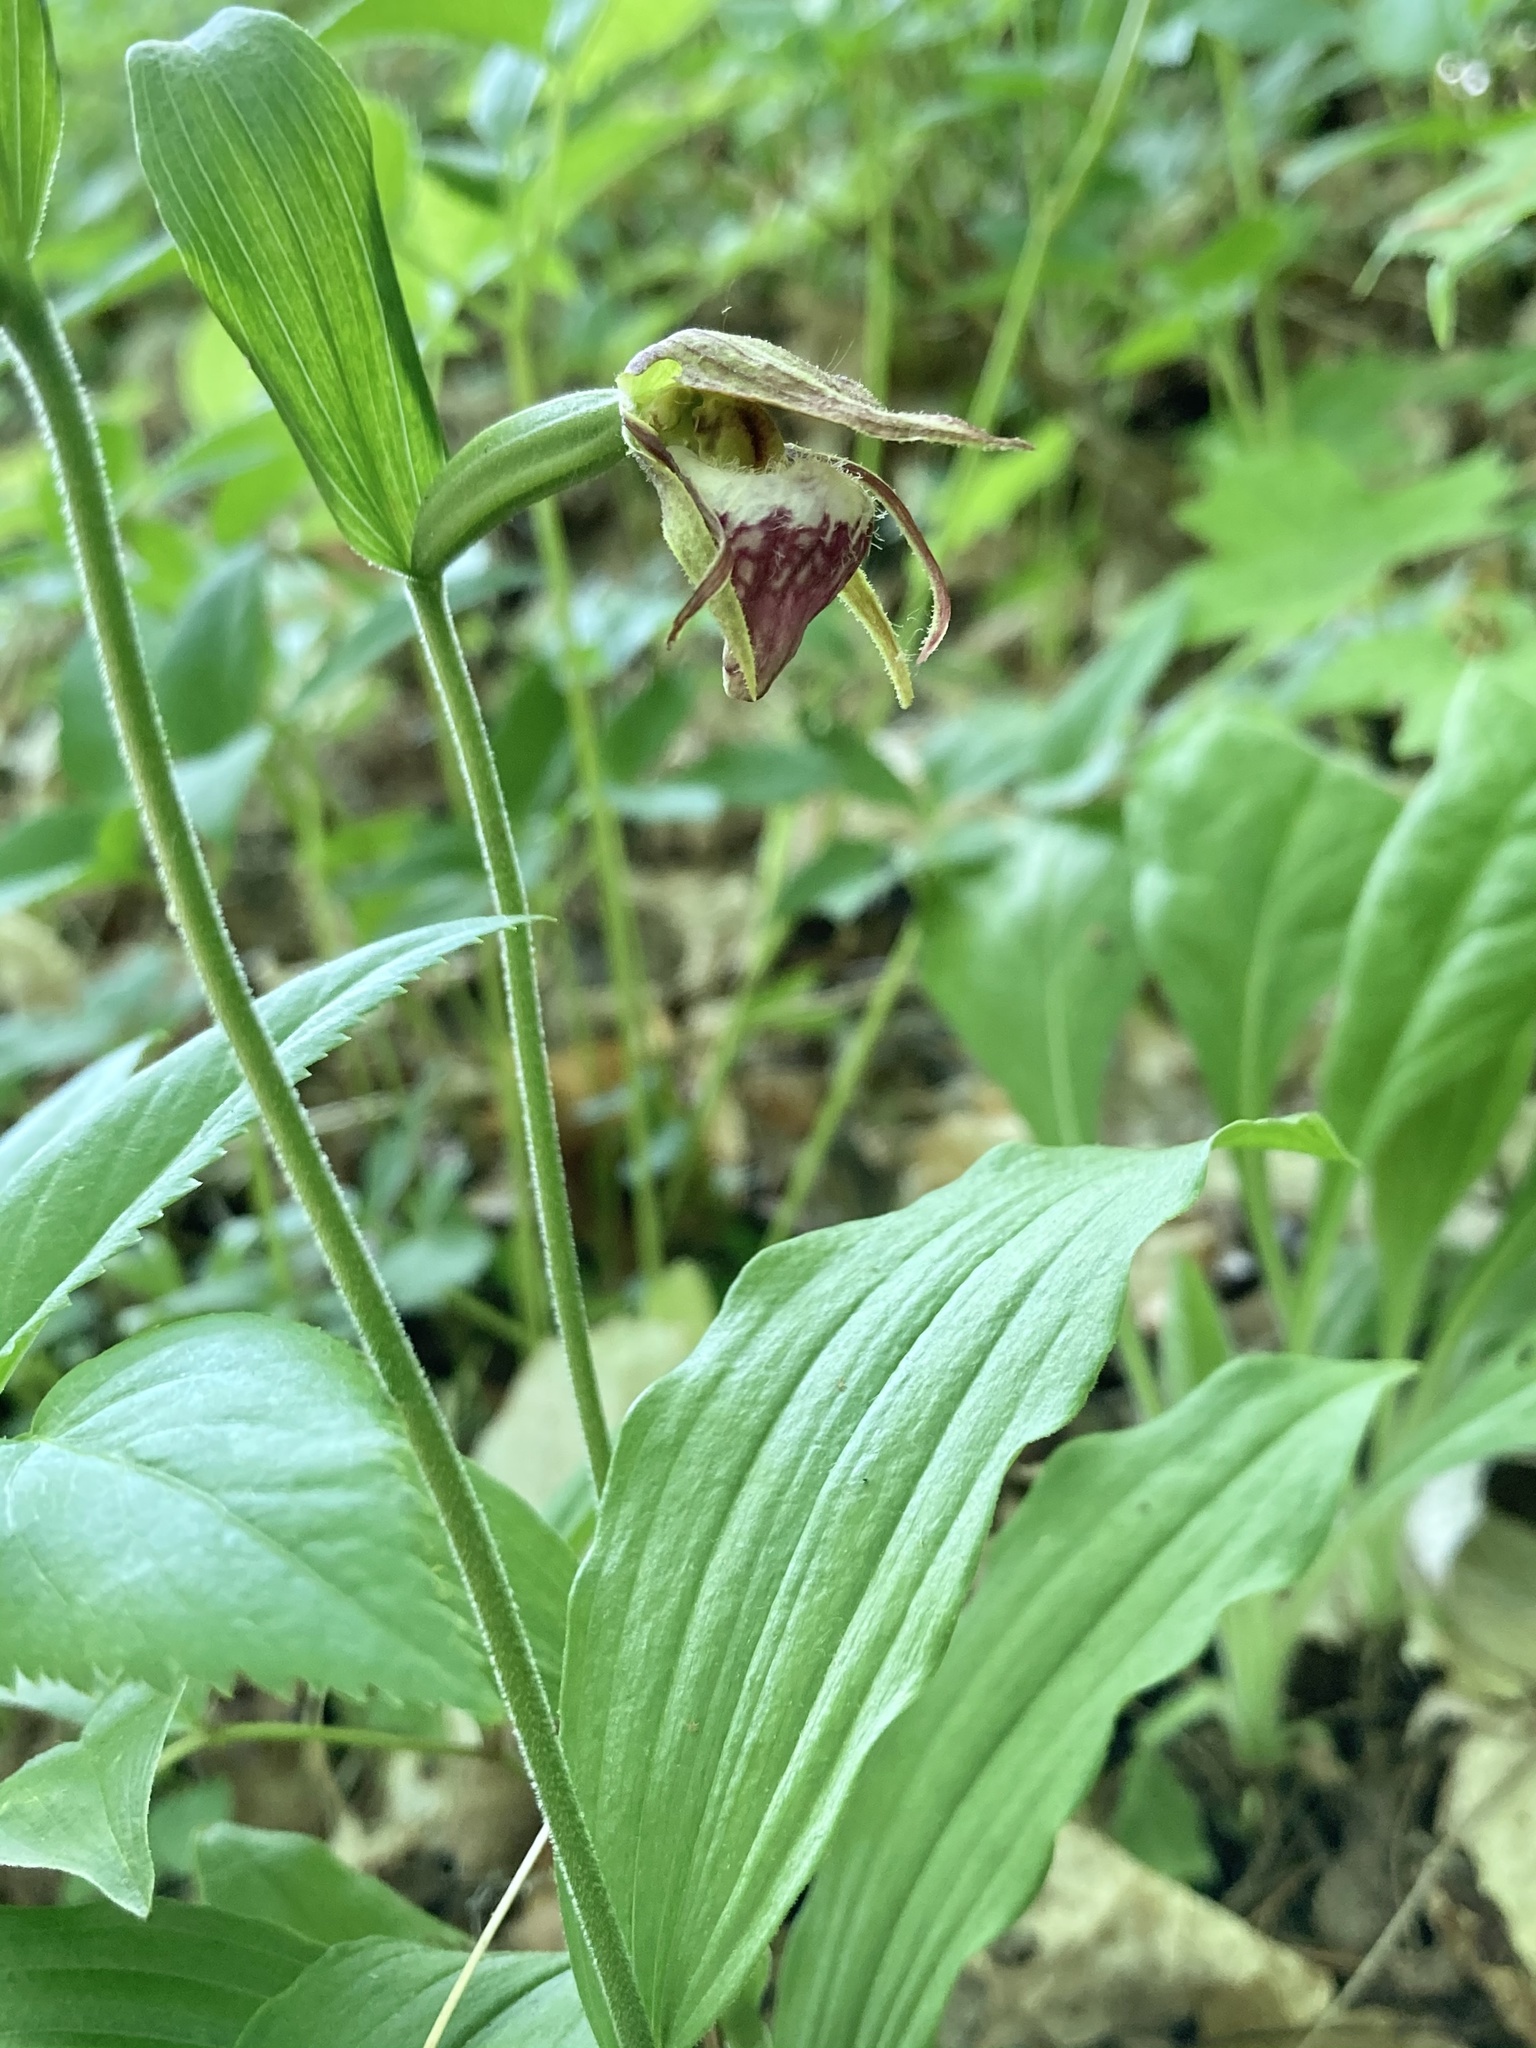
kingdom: Plantae
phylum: Tracheophyta
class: Liliopsida
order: Asparagales
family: Orchidaceae
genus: Cypripedium
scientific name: Cypripedium arietinum
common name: Ram's-head
